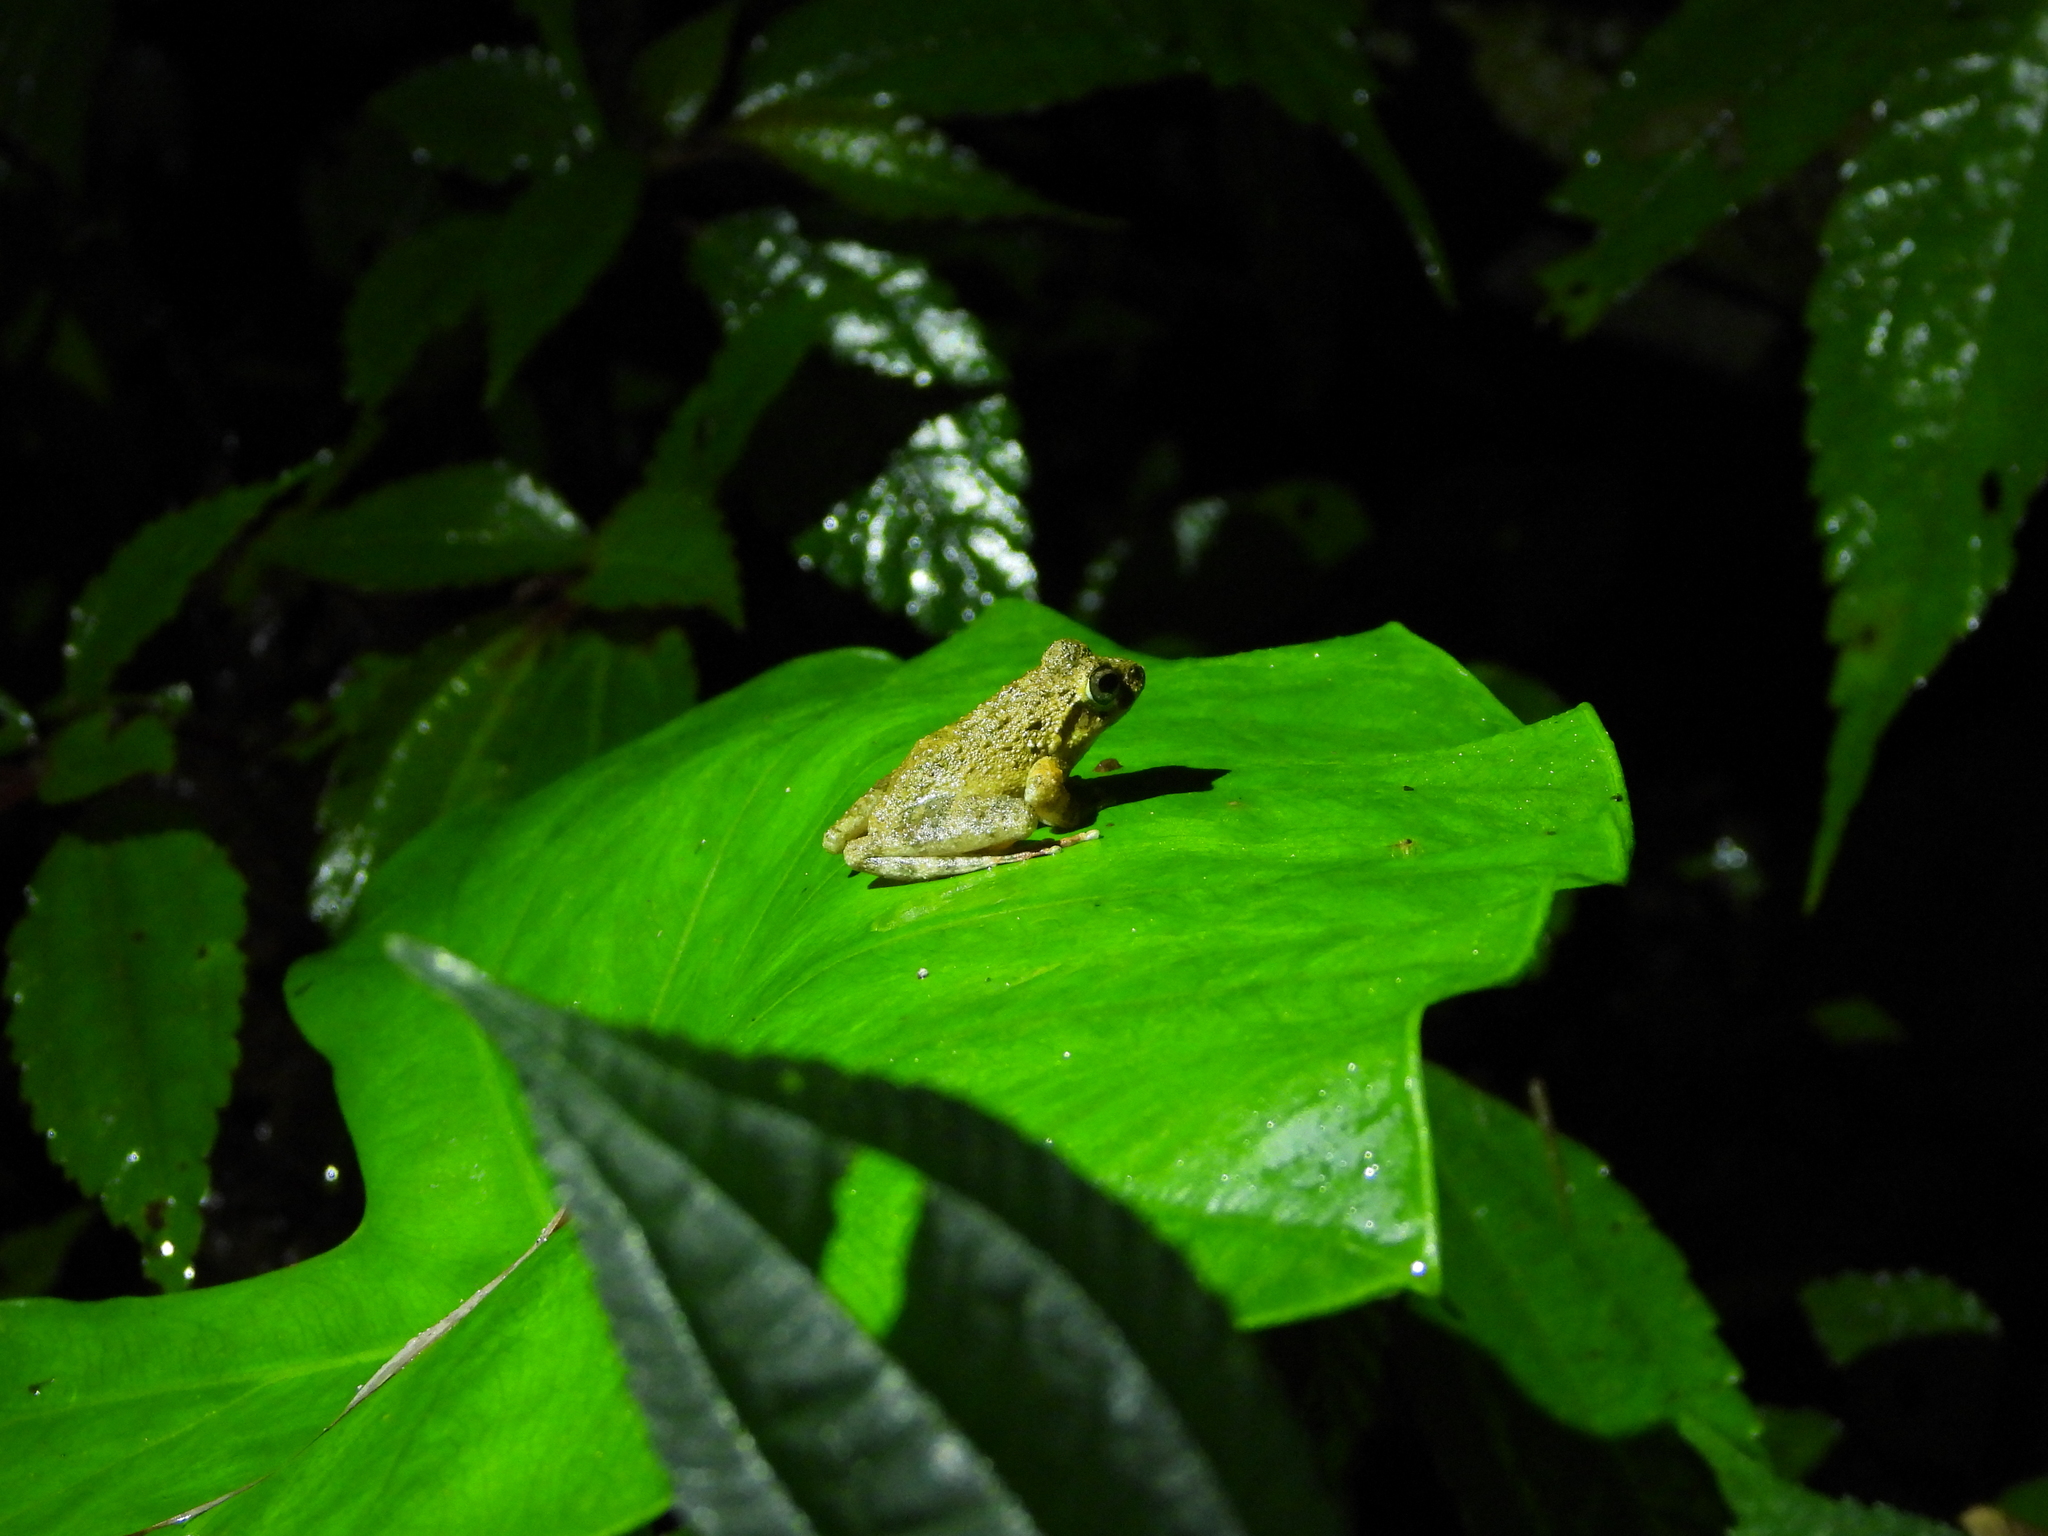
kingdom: Animalia
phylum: Chordata
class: Amphibia
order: Anura
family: Rhacophoridae
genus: Buergeria
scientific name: Buergeria otai
